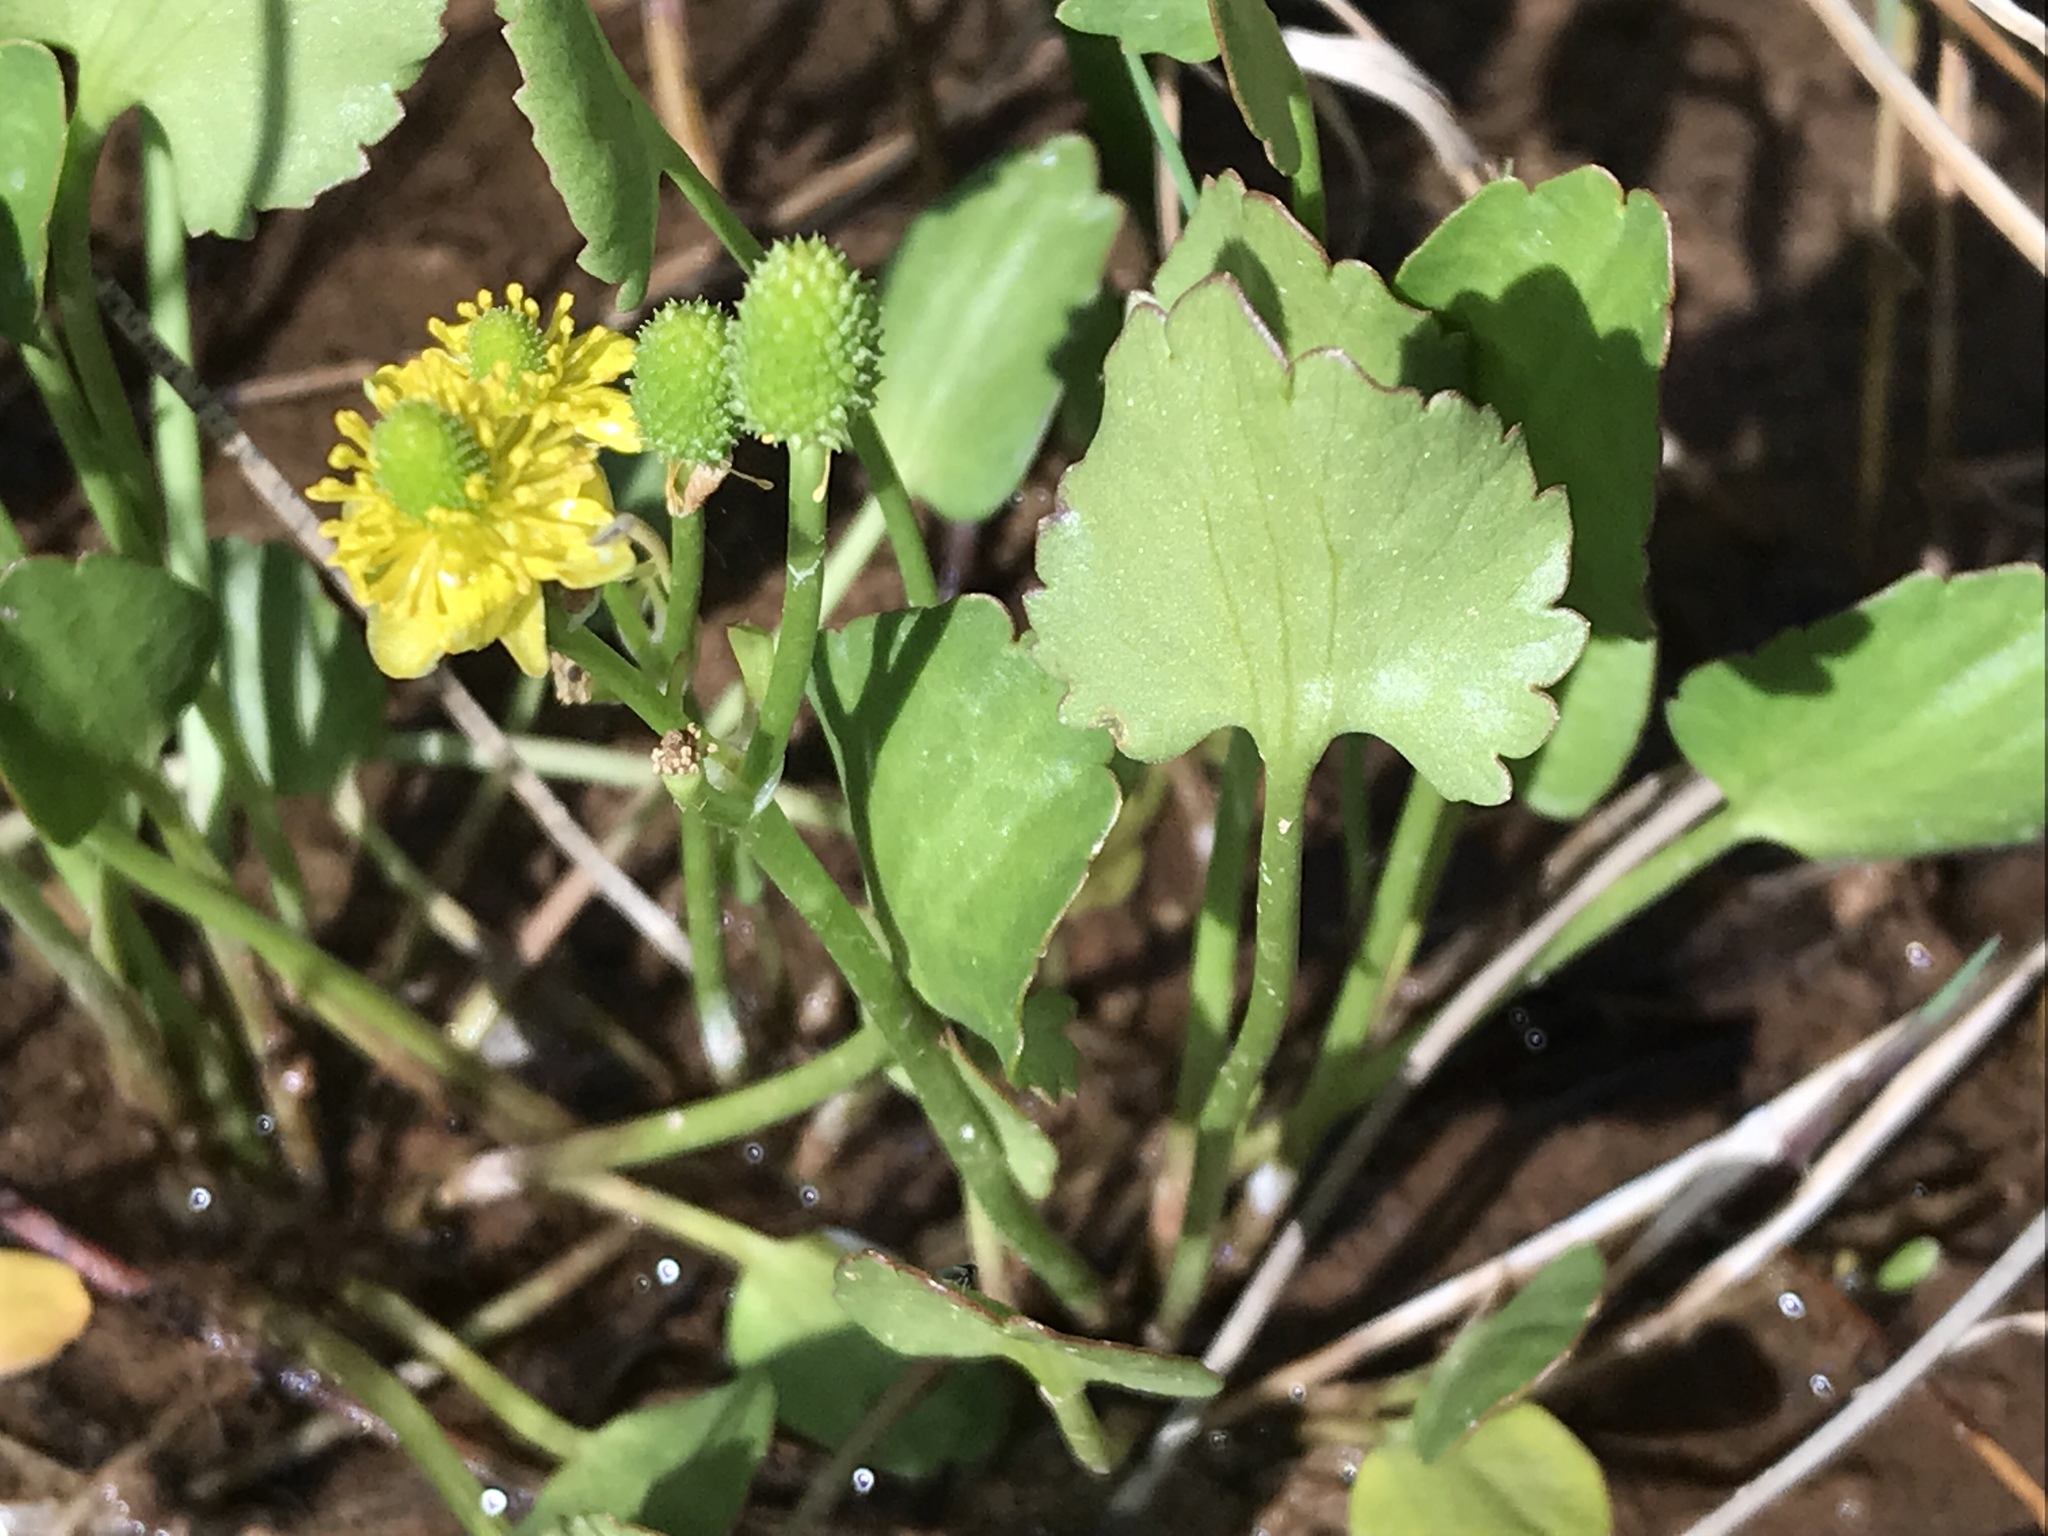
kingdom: Plantae
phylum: Tracheophyta
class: Magnoliopsida
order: Ranunculales
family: Ranunculaceae
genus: Halerpestes
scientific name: Halerpestes cymbalaria
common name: Seaside crowfoot
